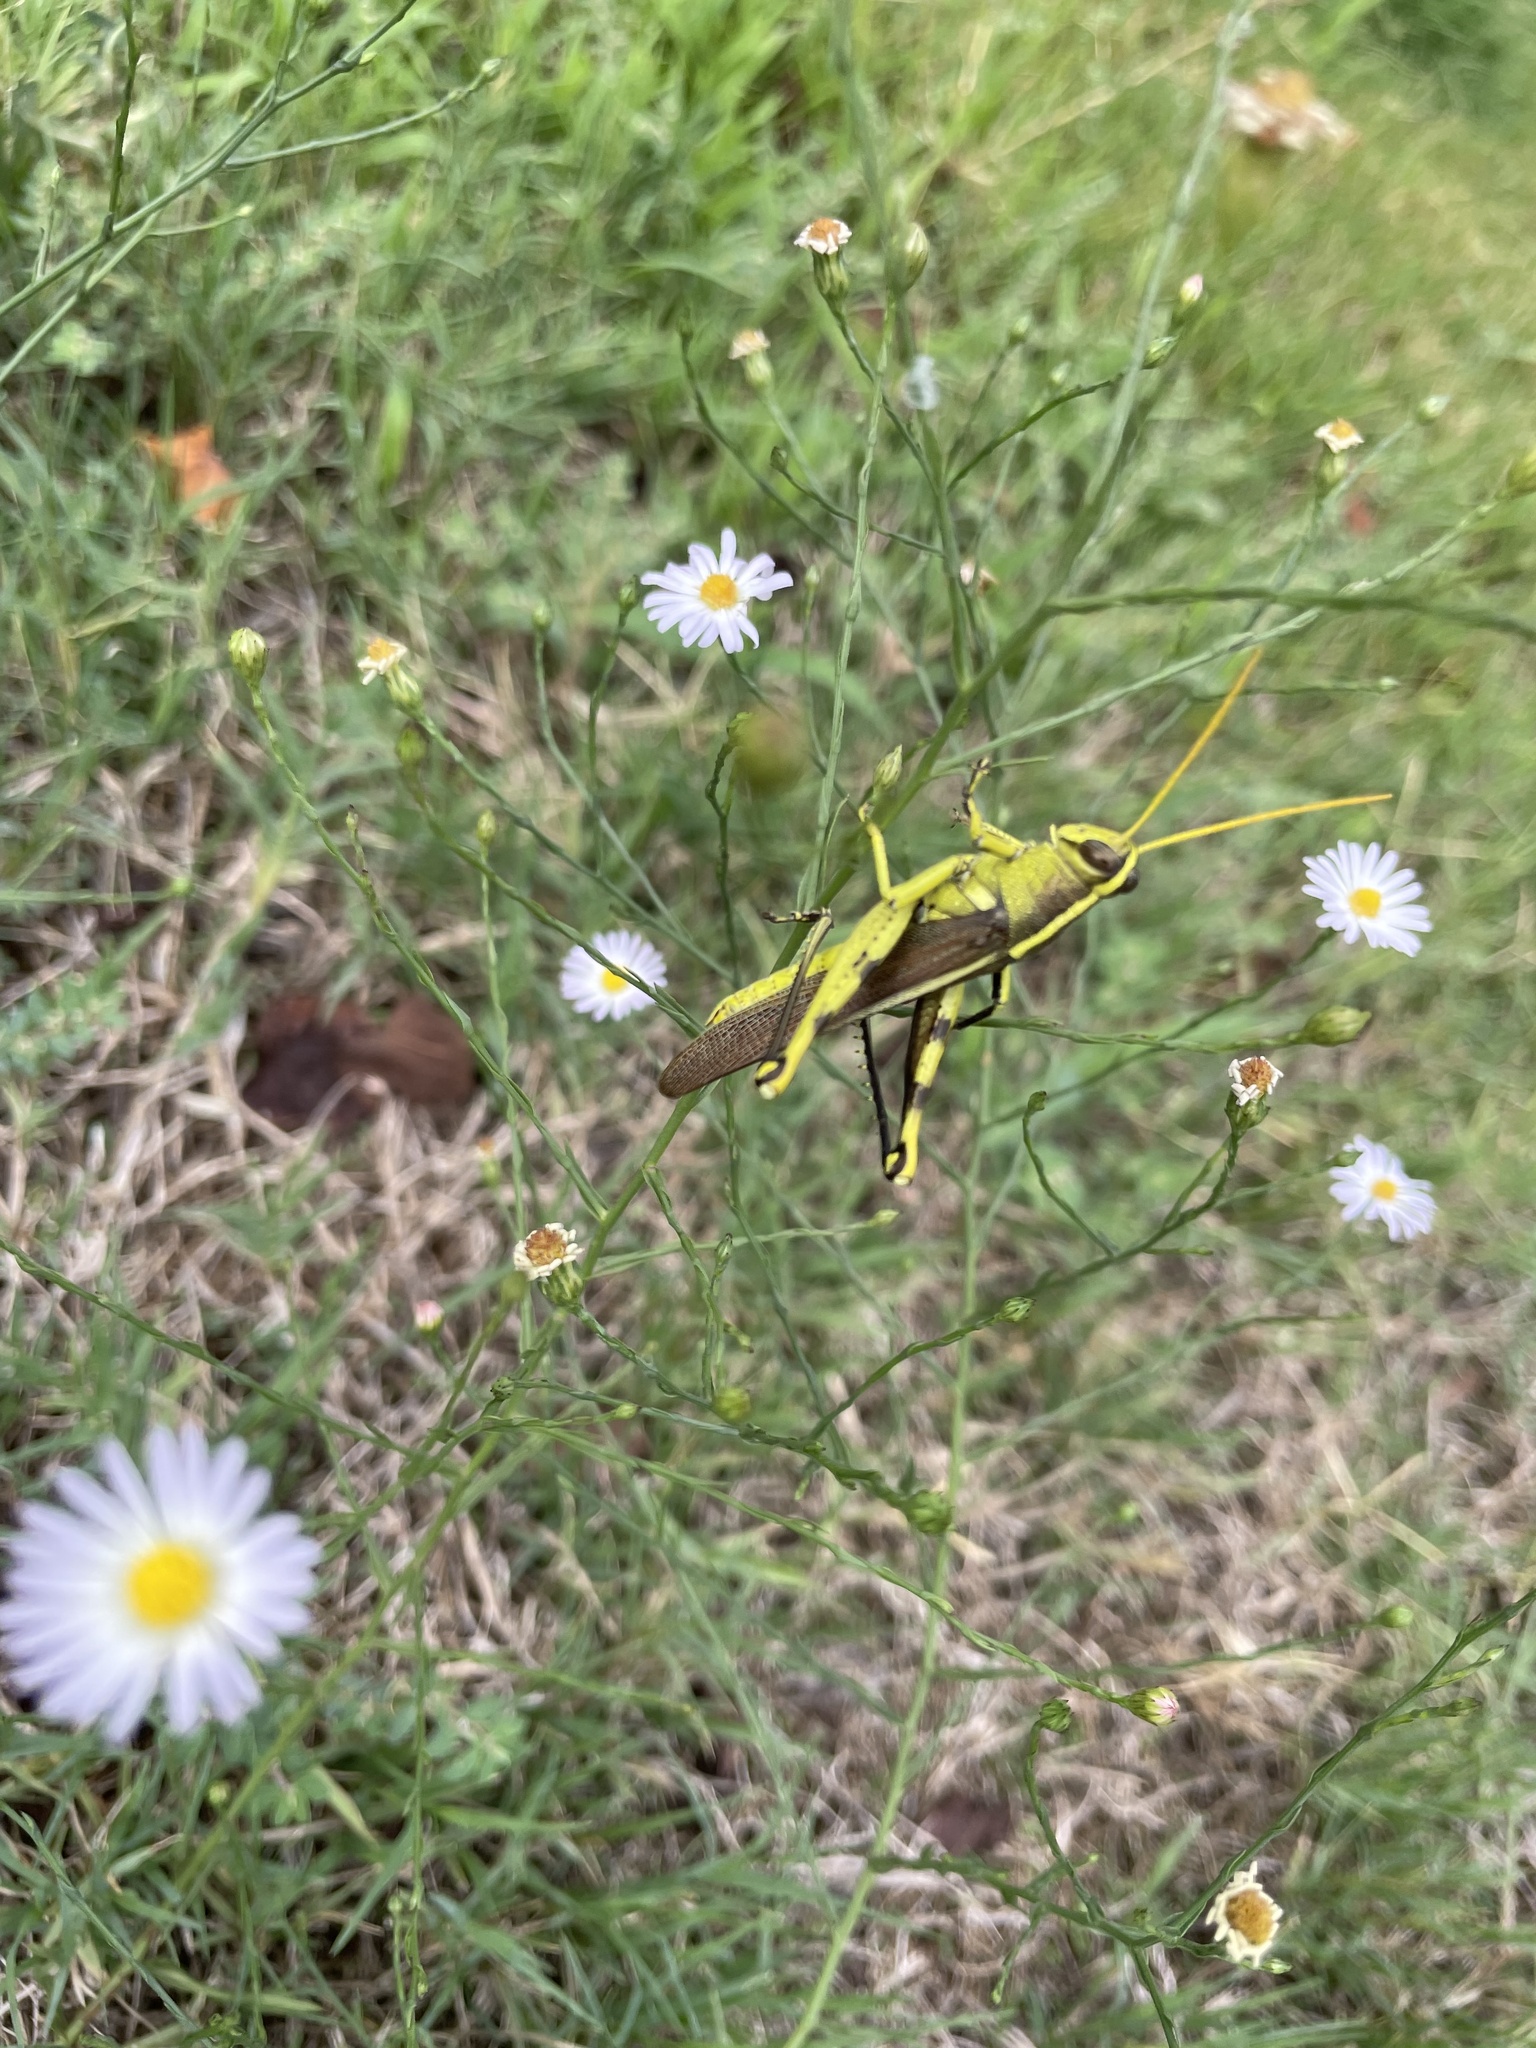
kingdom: Animalia
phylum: Arthropoda
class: Insecta
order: Orthoptera
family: Acrididae
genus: Schistocerca
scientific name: Schistocerca obscura
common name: Obscure bird grasshopper
